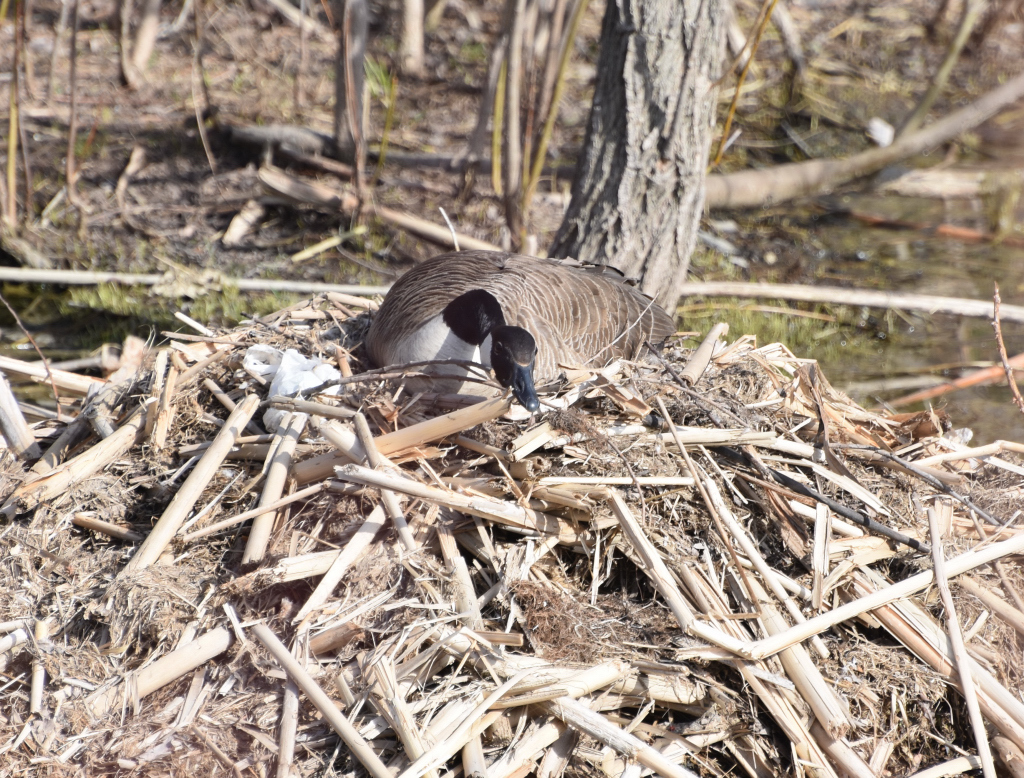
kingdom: Animalia
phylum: Chordata
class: Aves
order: Anseriformes
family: Anatidae
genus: Branta
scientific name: Branta canadensis
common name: Canada goose
